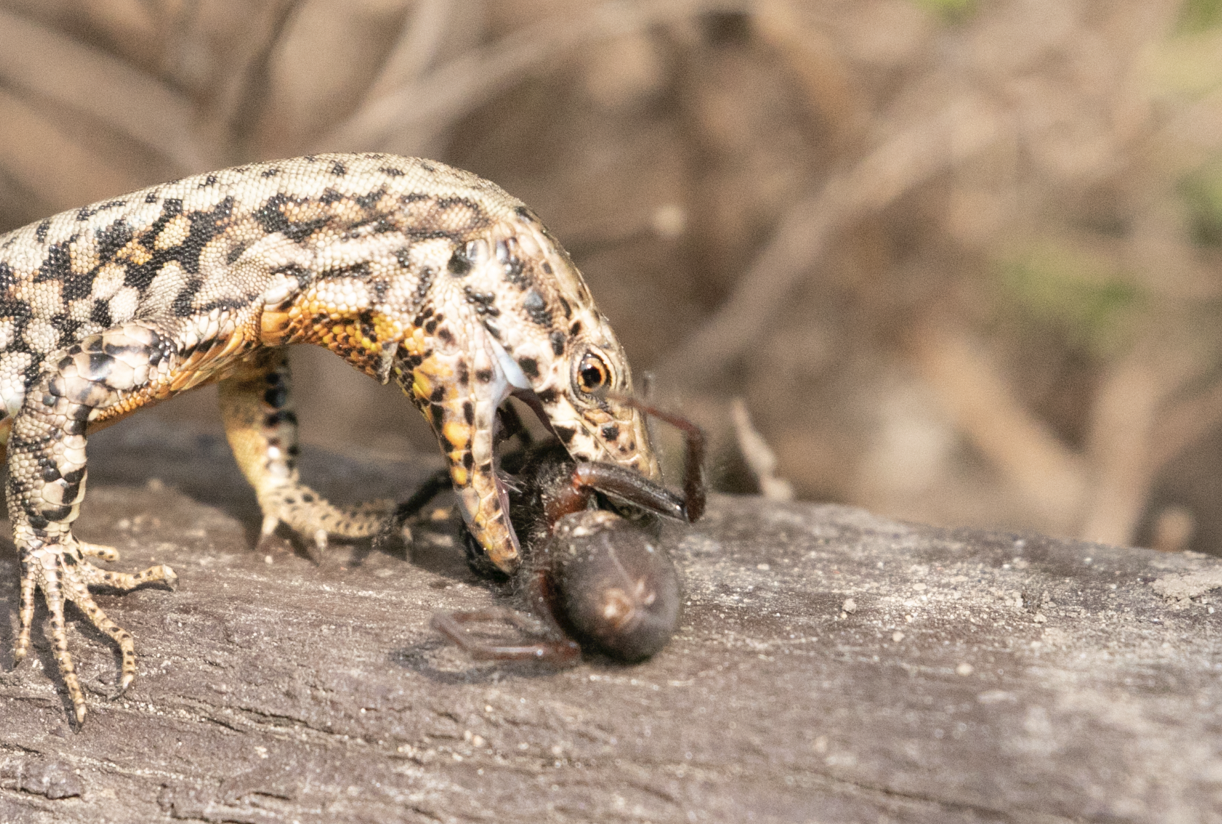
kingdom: Animalia
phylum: Arthropoda
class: Arachnida
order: Araneae
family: Segestriidae
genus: Segestria
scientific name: Segestria florentina
